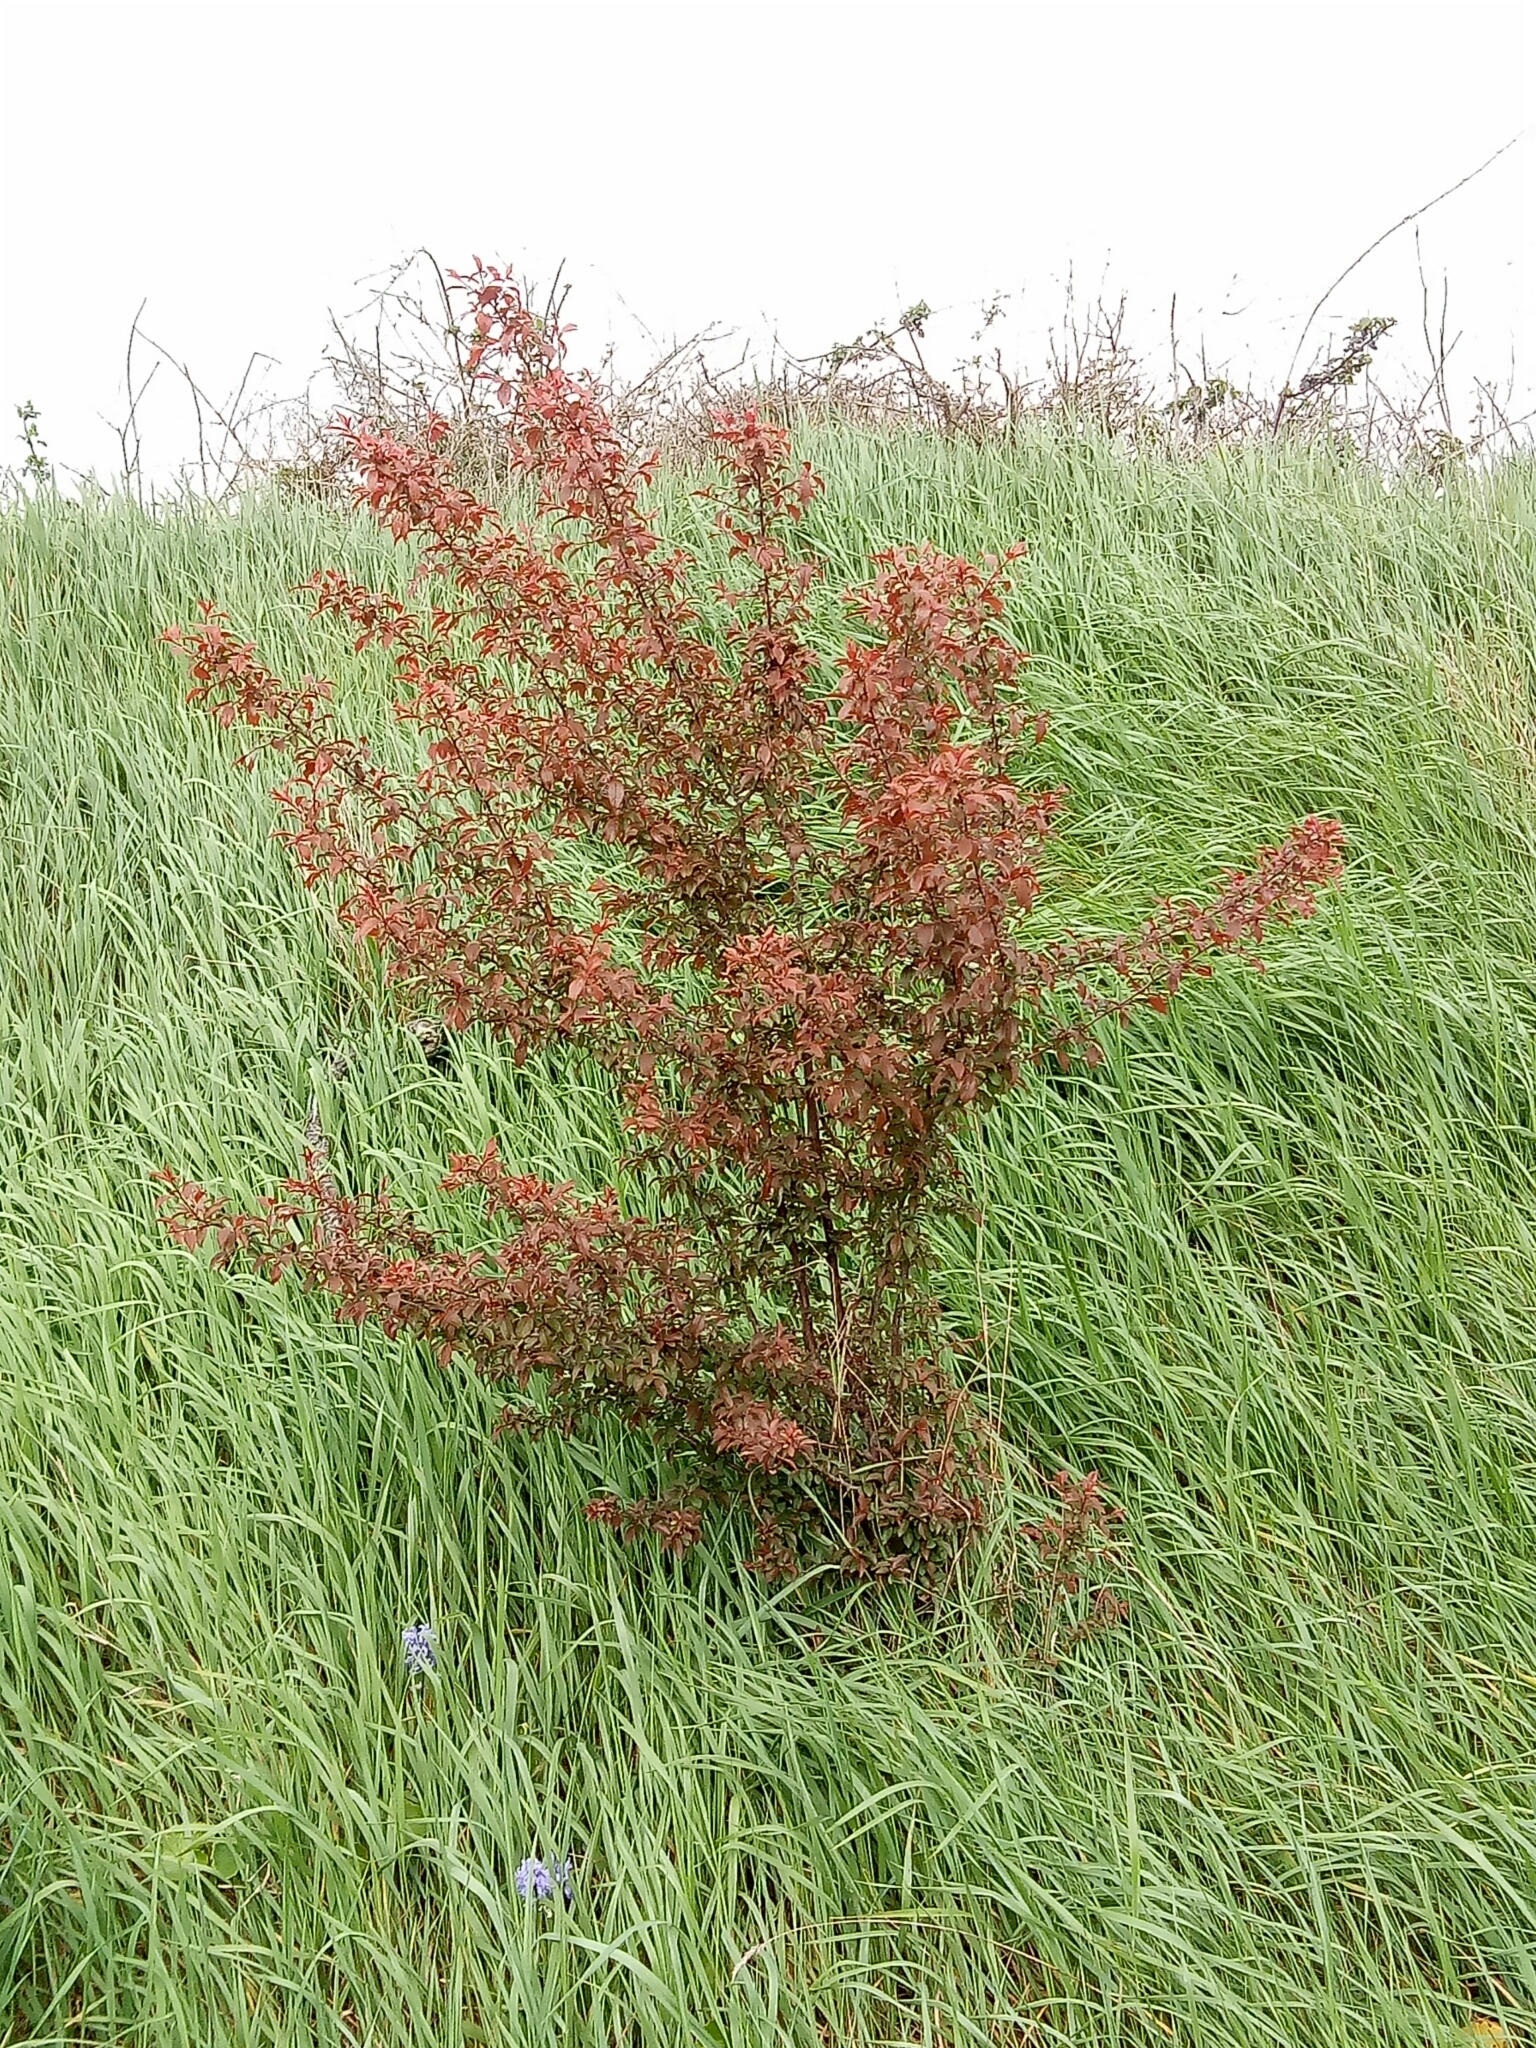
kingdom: Plantae
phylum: Tracheophyta
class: Magnoliopsida
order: Rosales
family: Rosaceae
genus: Prunus
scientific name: Prunus cerasifera
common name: Cherry plum
